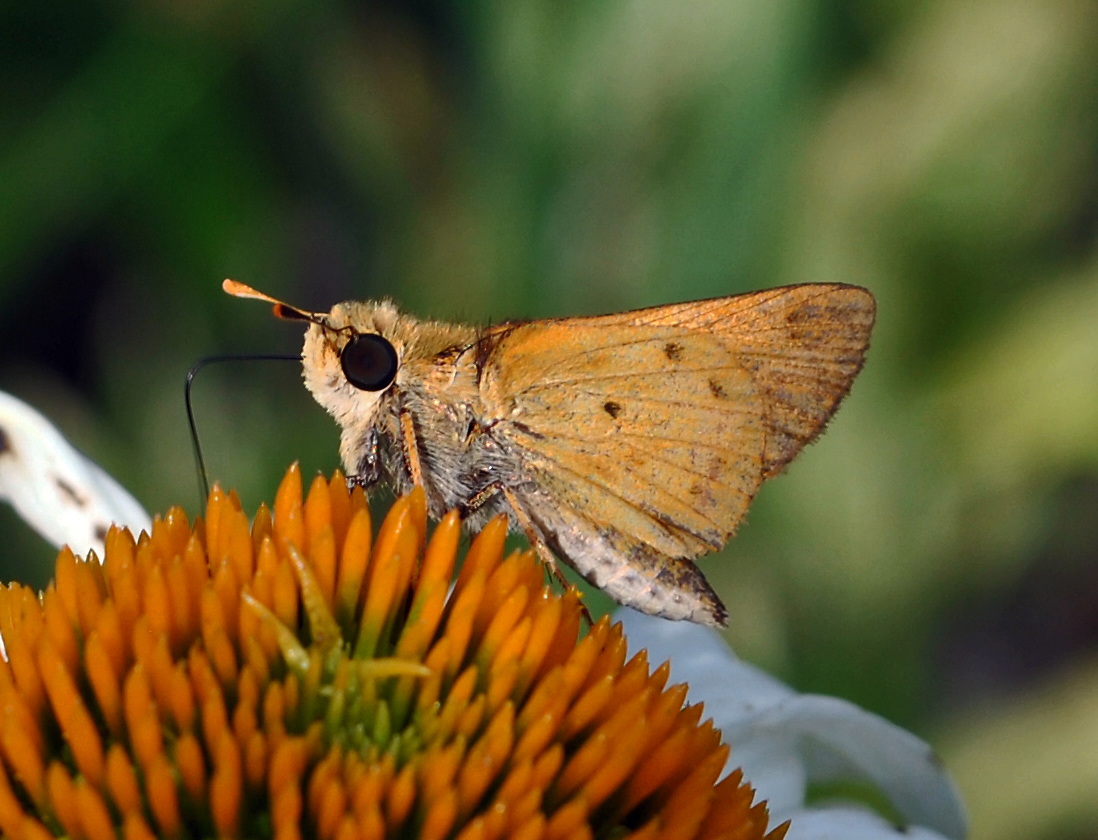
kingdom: Animalia
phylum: Arthropoda
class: Insecta
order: Lepidoptera
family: Hesperiidae
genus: Hylephila
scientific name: Hylephila phyleus
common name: Fiery skipper
